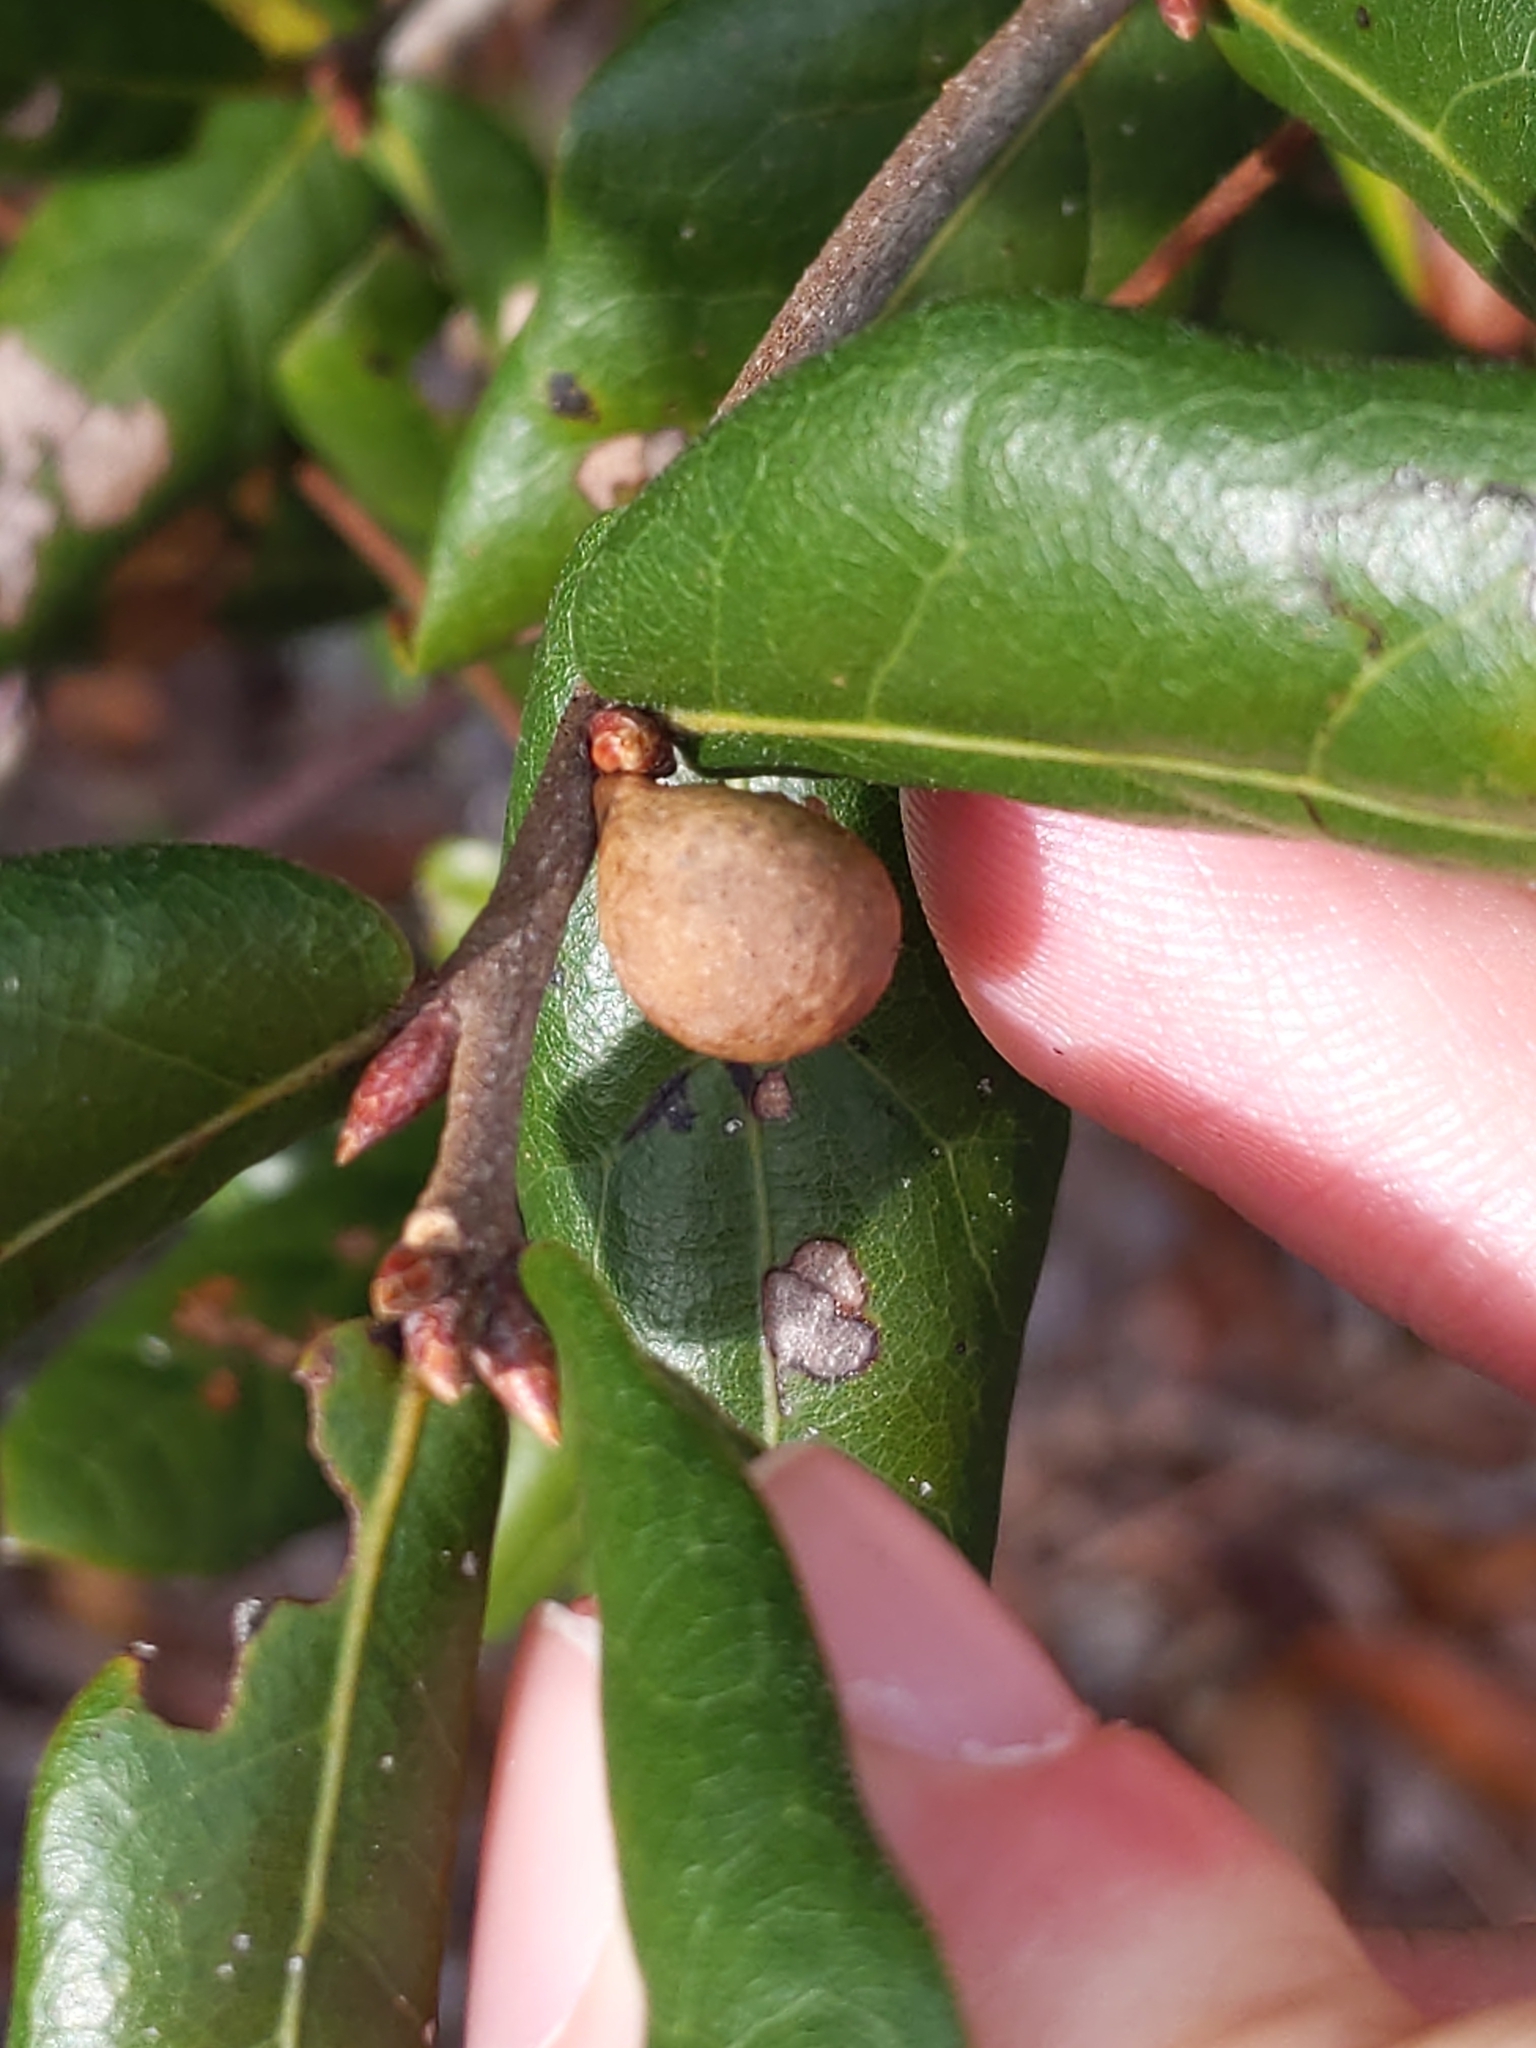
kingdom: Animalia
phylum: Arthropoda
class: Insecta
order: Hymenoptera
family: Cynipidae
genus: Amphibolips
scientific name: Amphibolips
